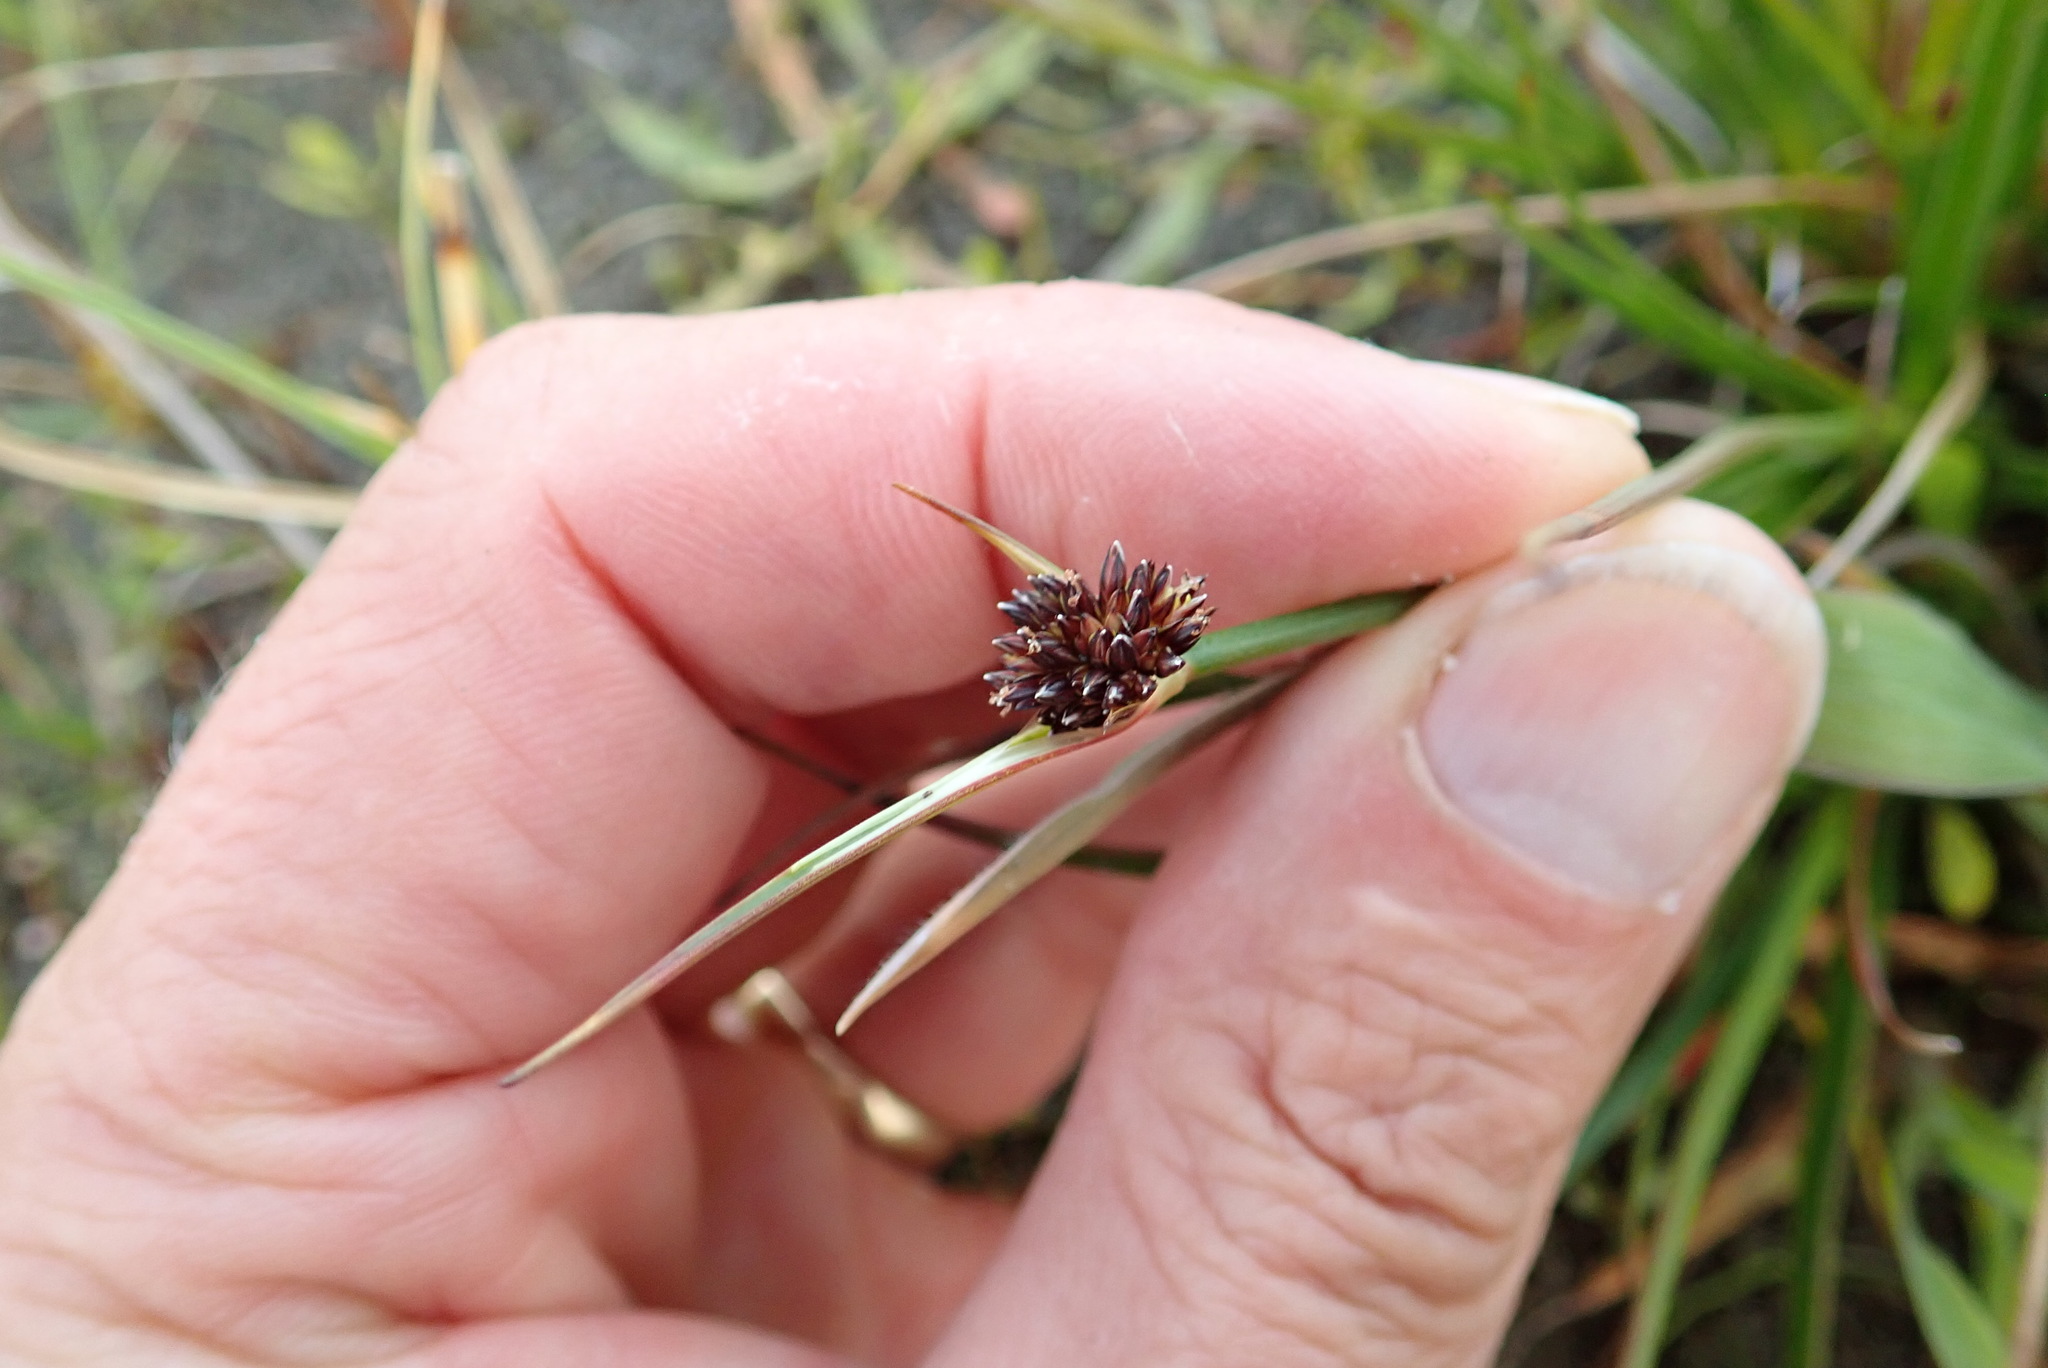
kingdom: Plantae
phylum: Tracheophyta
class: Liliopsida
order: Poales
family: Juncaceae
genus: Juncus
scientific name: Juncus caespiticius
